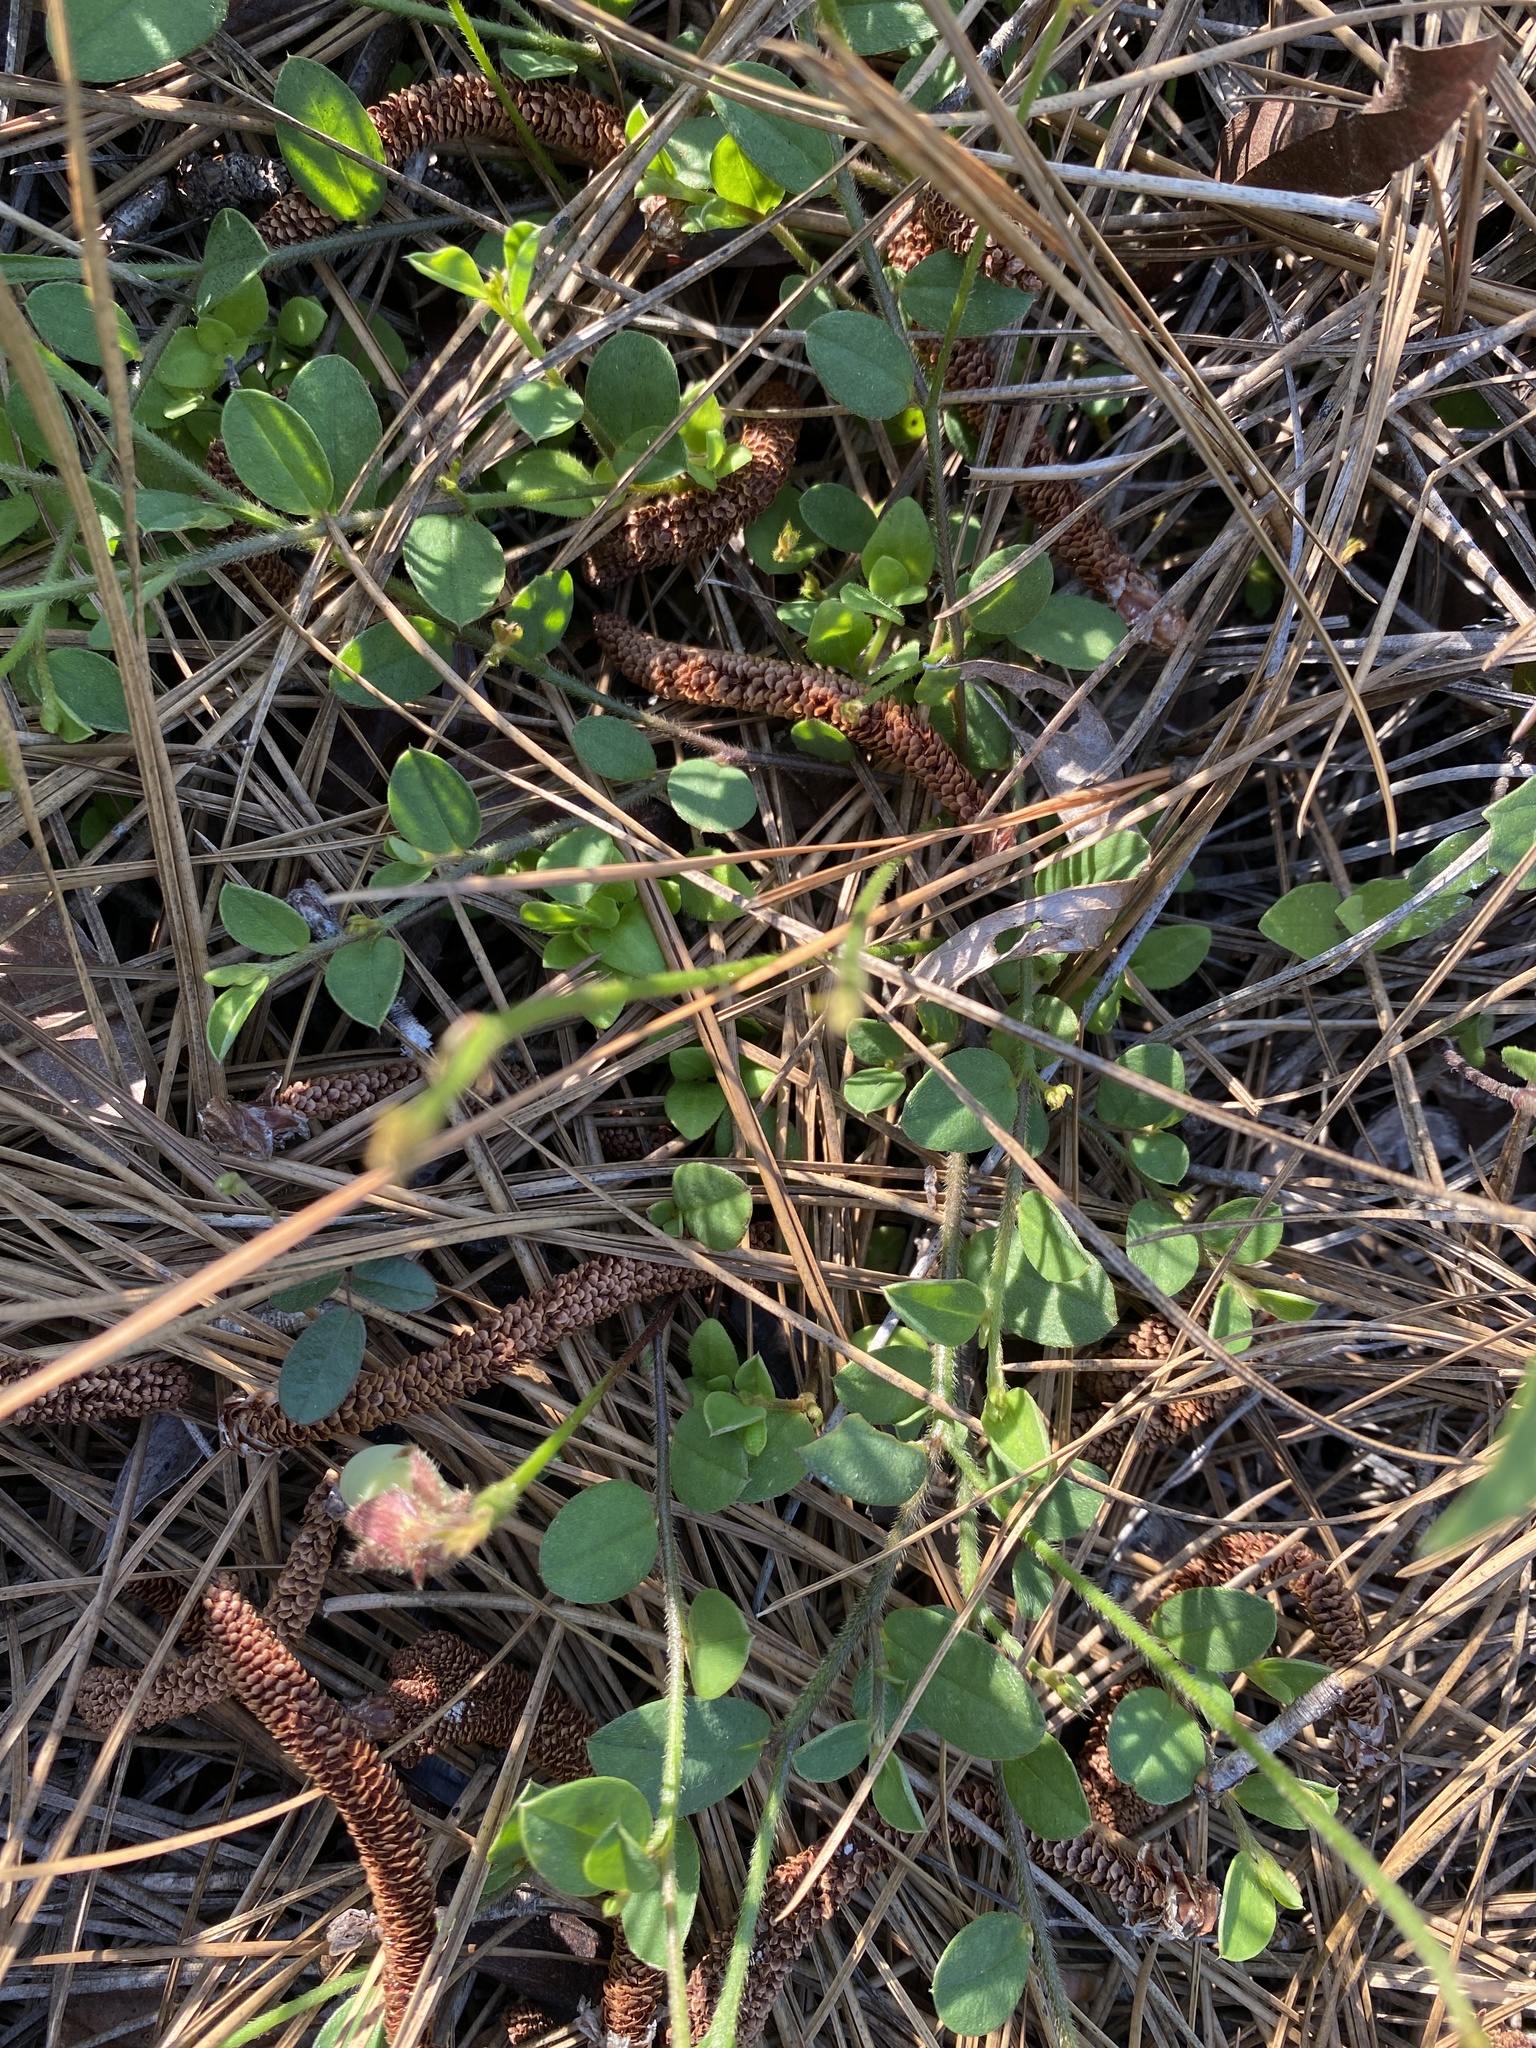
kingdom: Plantae
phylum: Tracheophyta
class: Magnoliopsida
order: Fabales
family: Fabaceae
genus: Crotalaria
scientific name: Crotalaria rotundifolia
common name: Prostrate rattlebox
